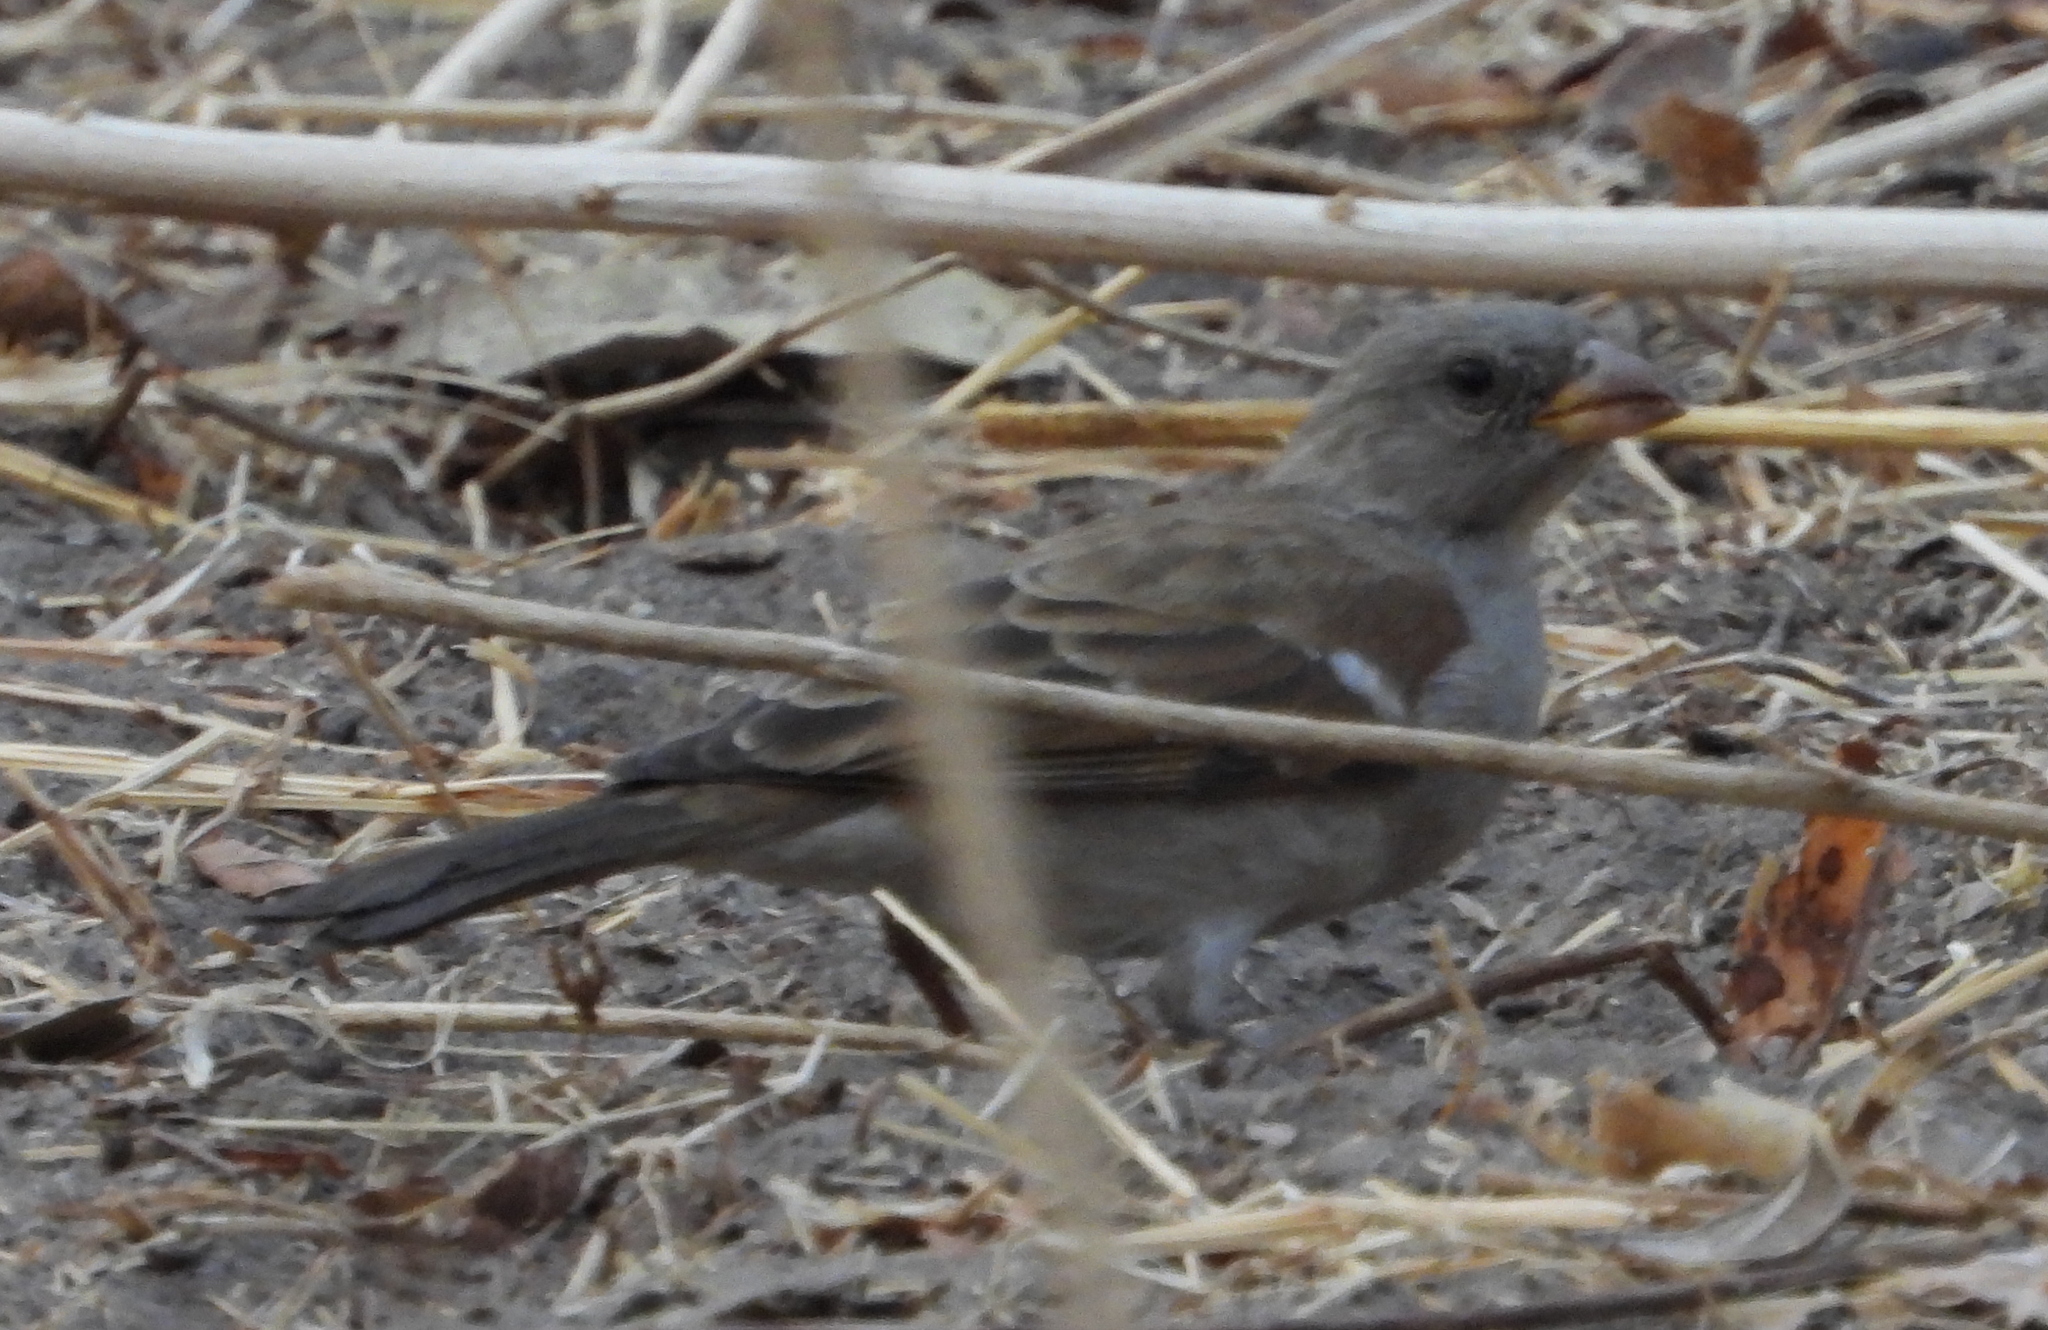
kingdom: Animalia
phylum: Chordata
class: Aves
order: Passeriformes
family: Passeridae
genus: Passer
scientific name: Passer diffusus
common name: Southern grey-headed sparrow
